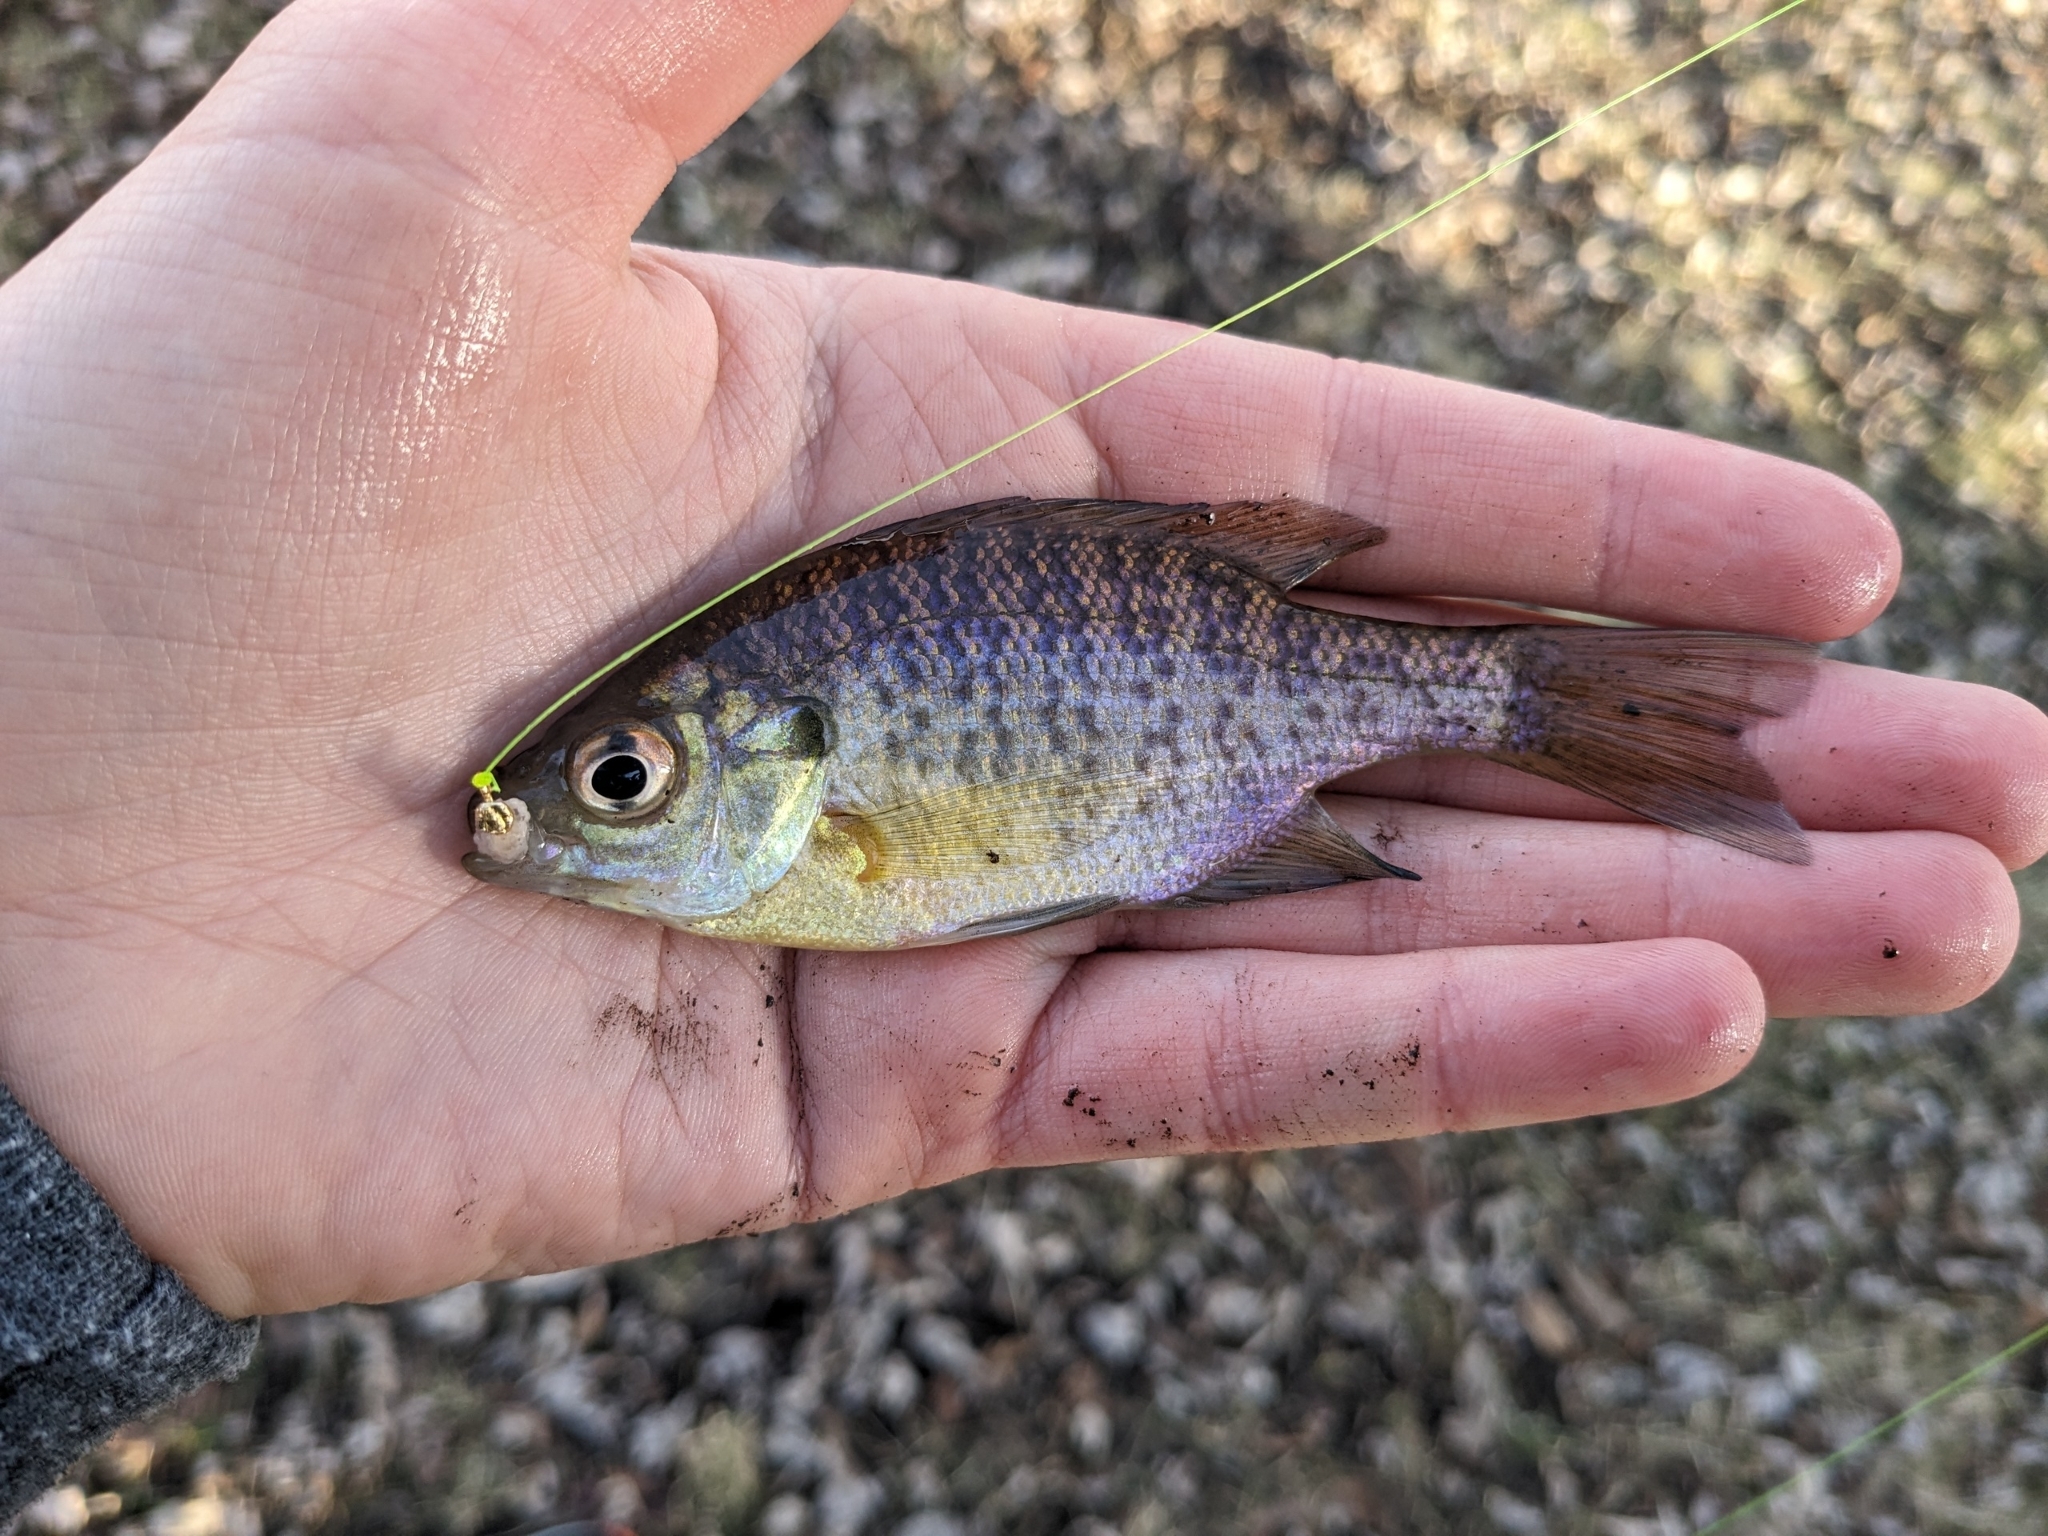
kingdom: Animalia
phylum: Chordata
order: Perciformes
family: Centrarchidae
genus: Lepomis
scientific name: Lepomis macrochirus
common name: Bluegill
